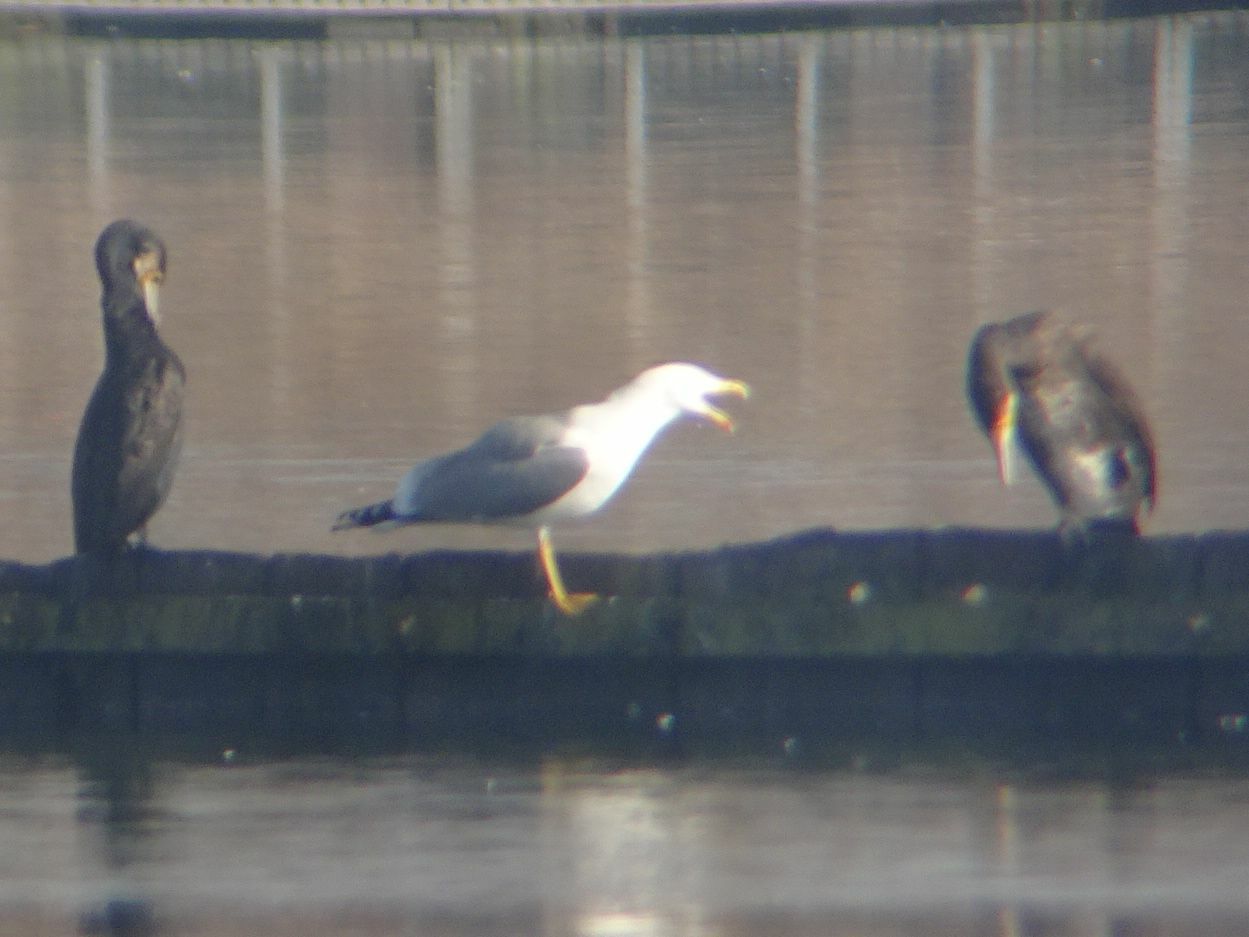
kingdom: Animalia
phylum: Chordata
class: Aves
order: Charadriiformes
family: Laridae
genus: Larus
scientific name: Larus michahellis
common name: Yellow-legged gull
